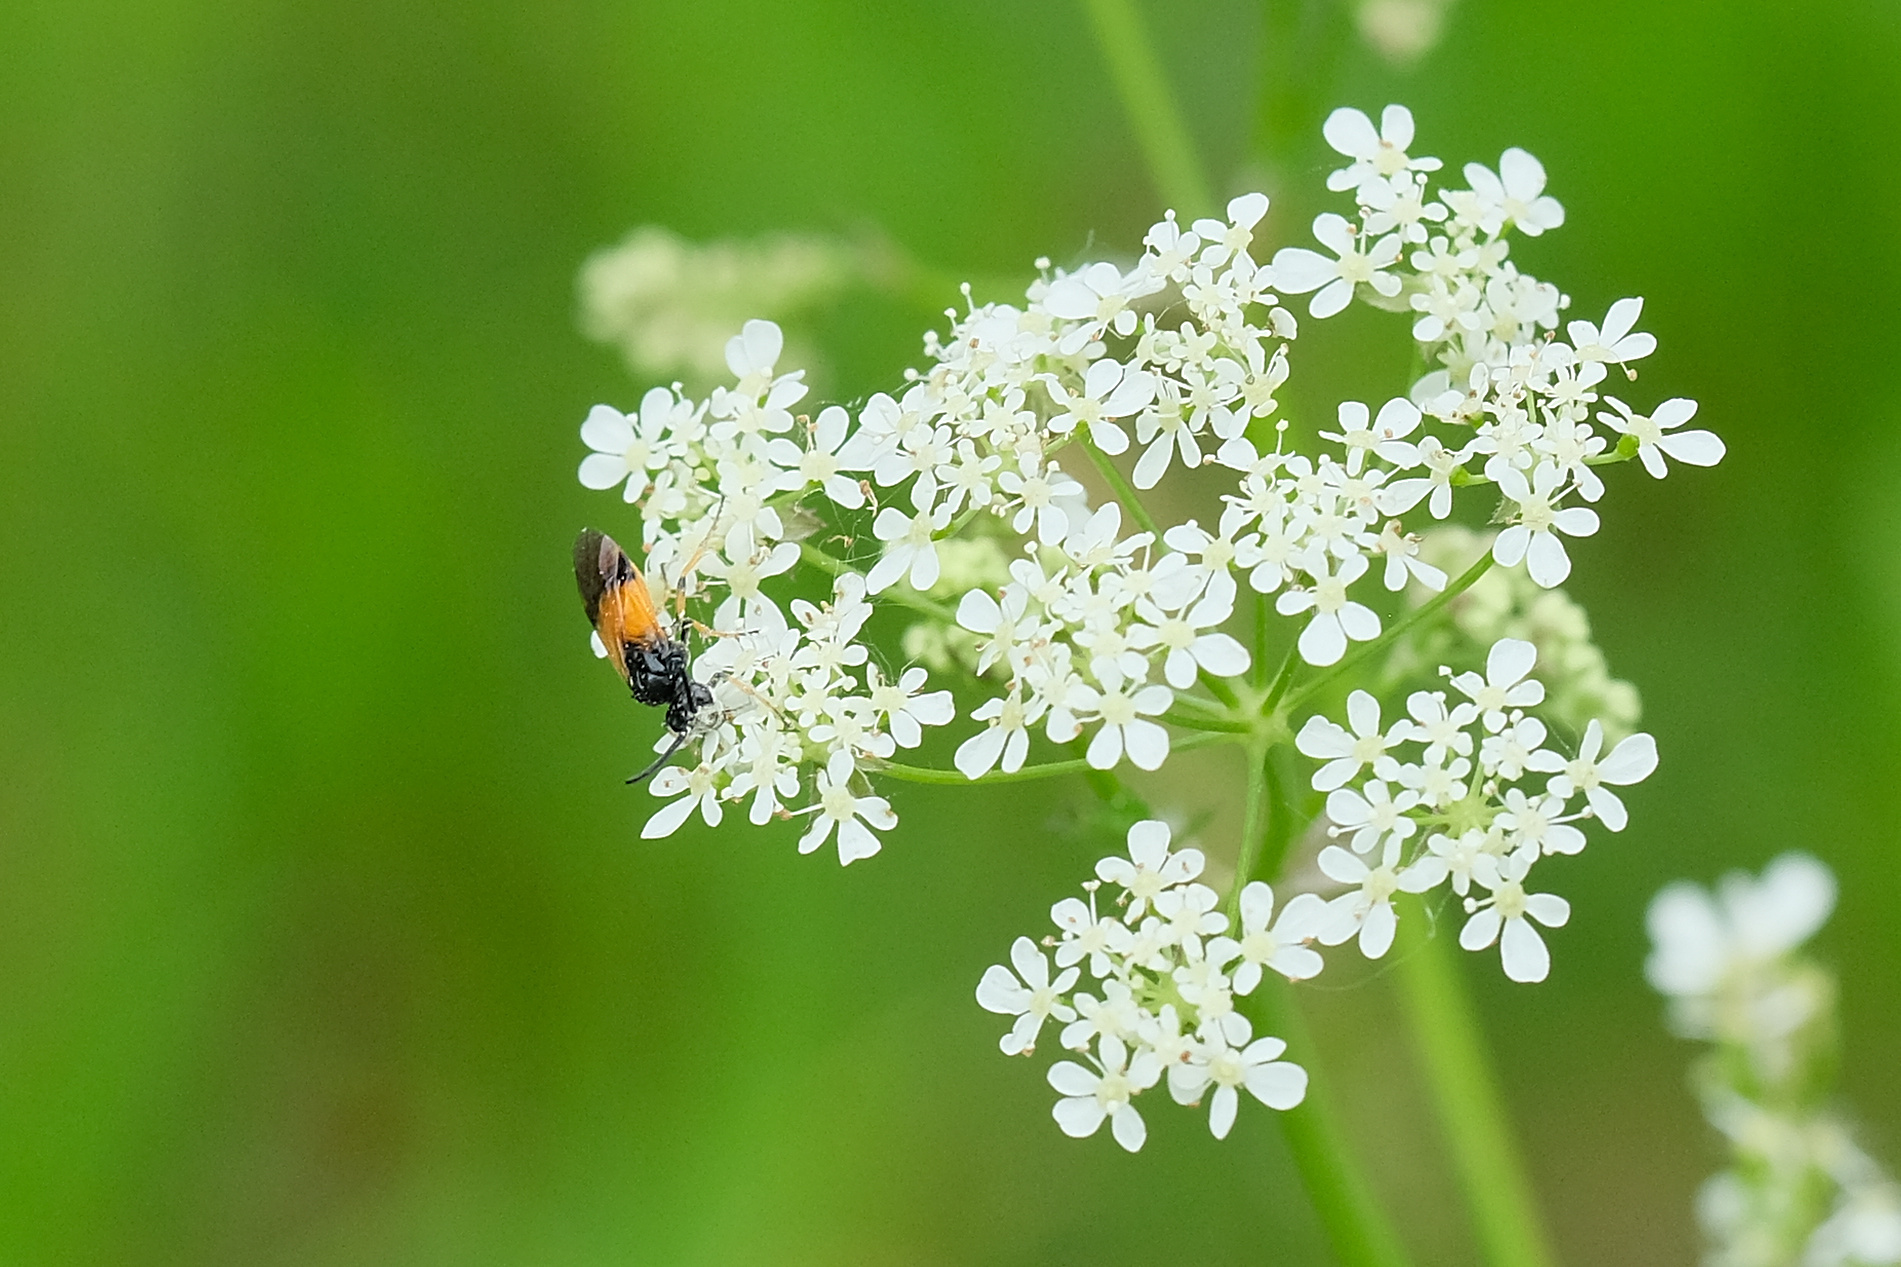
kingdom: Animalia
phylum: Arthropoda
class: Insecta
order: Hymenoptera
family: Argidae
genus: Arge
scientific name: Arge cyanocrocea
